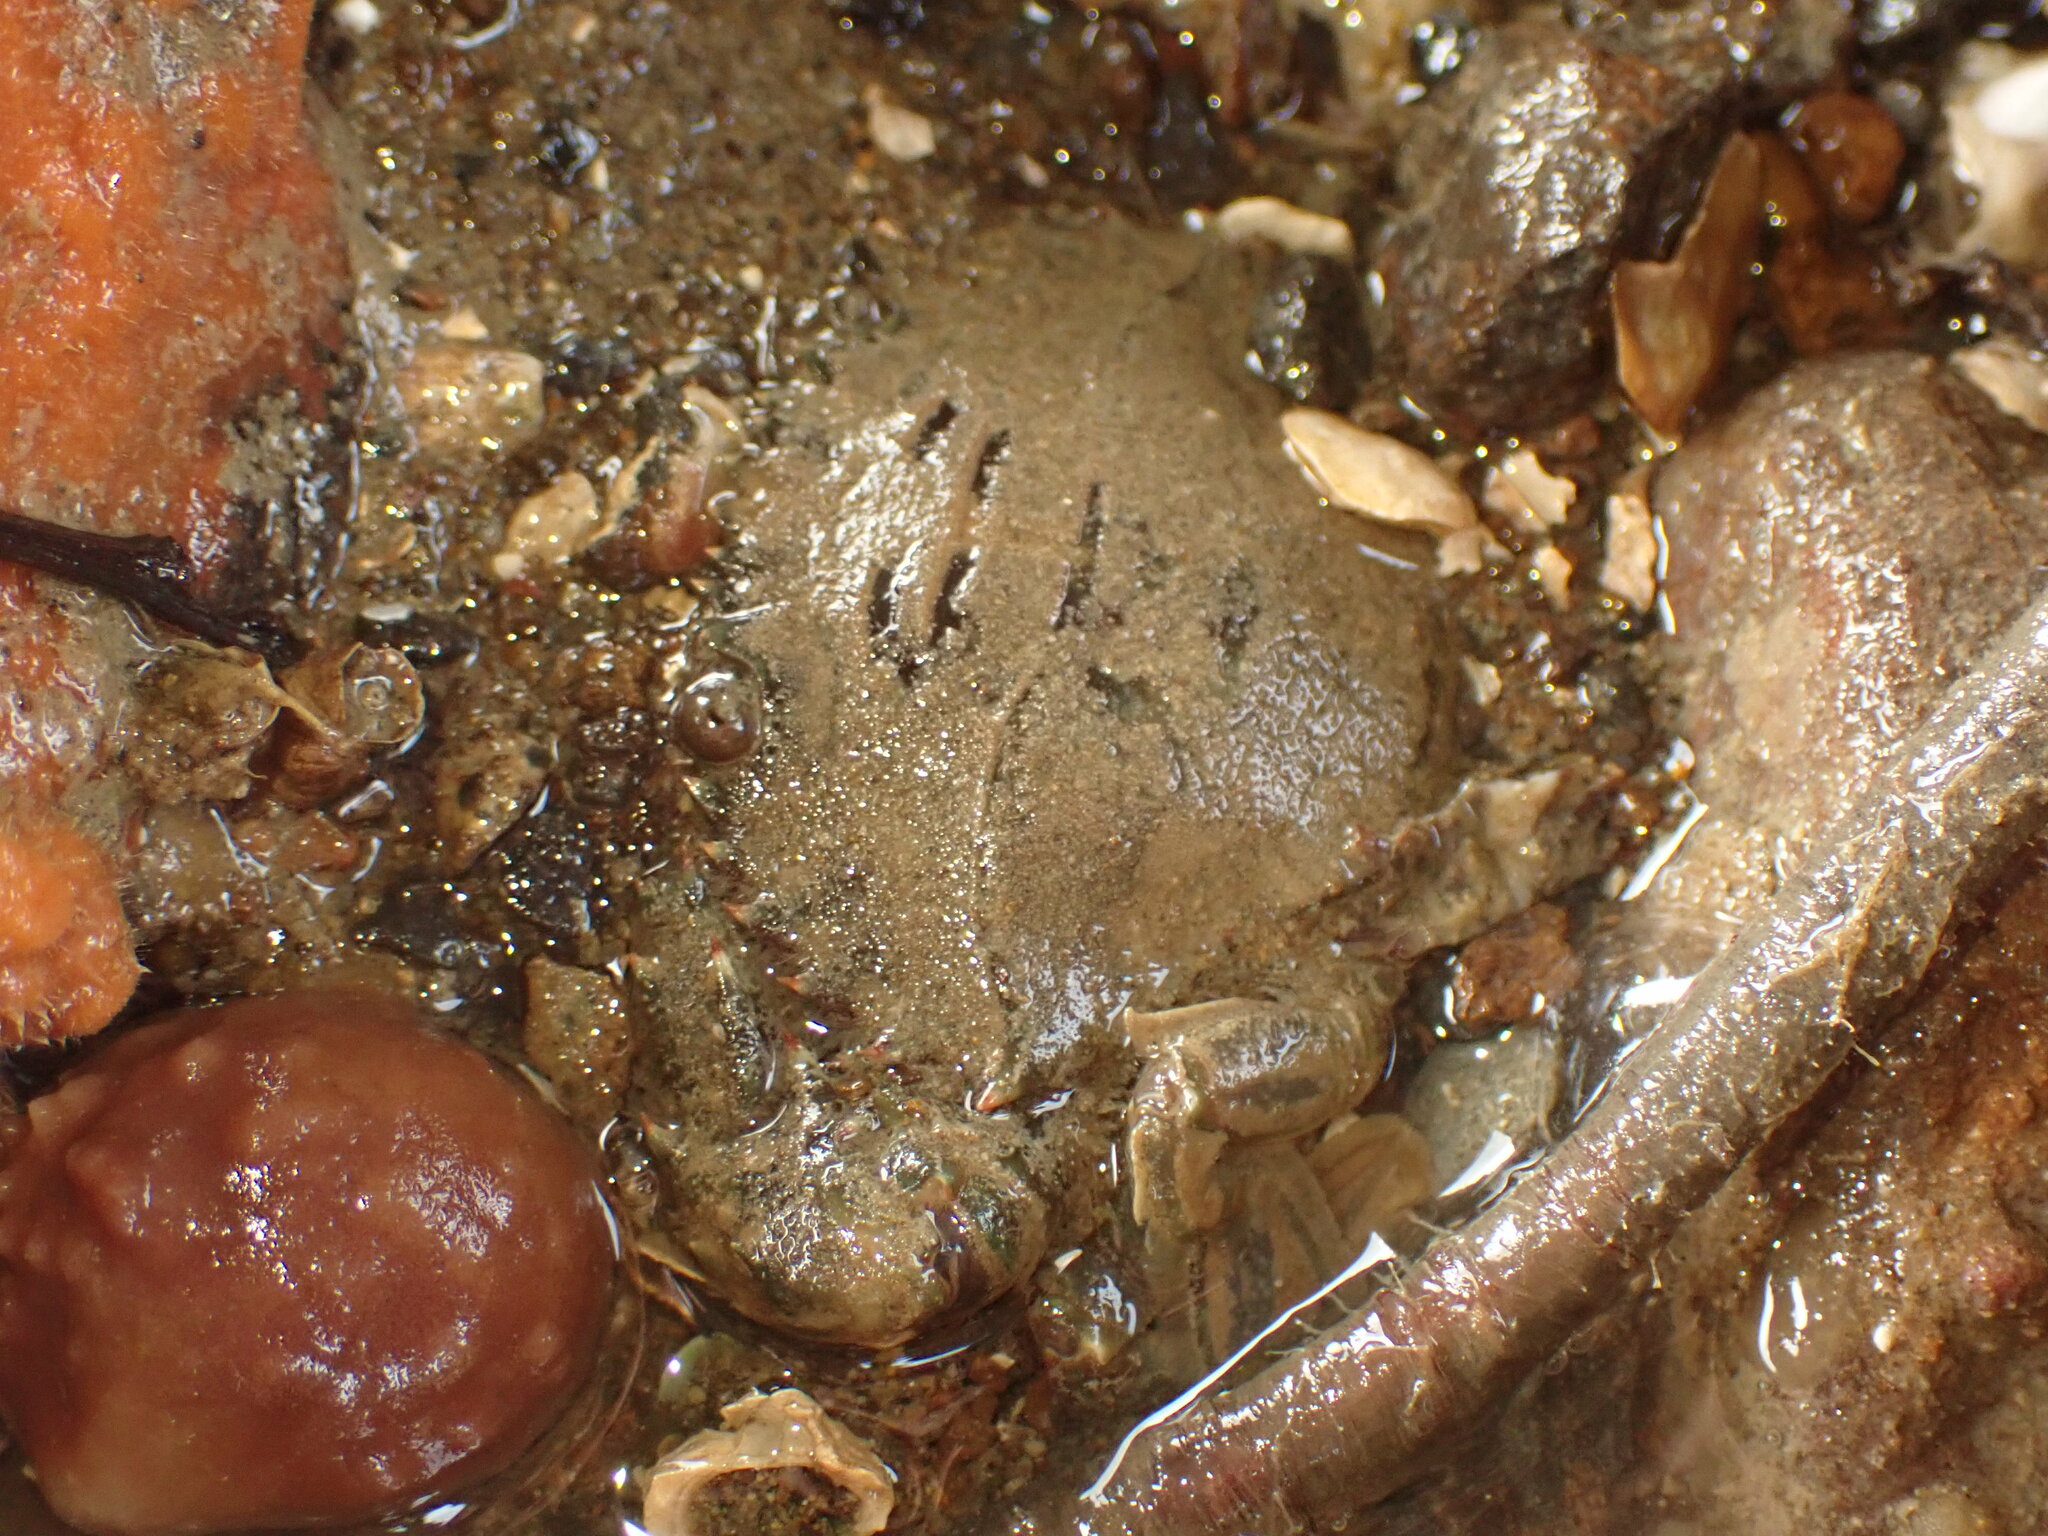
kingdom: Animalia
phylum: Arthropoda
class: Malacostraca
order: Decapoda
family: Portunidae
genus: Charybdis
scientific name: Charybdis japonica
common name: Asian paddle crab
